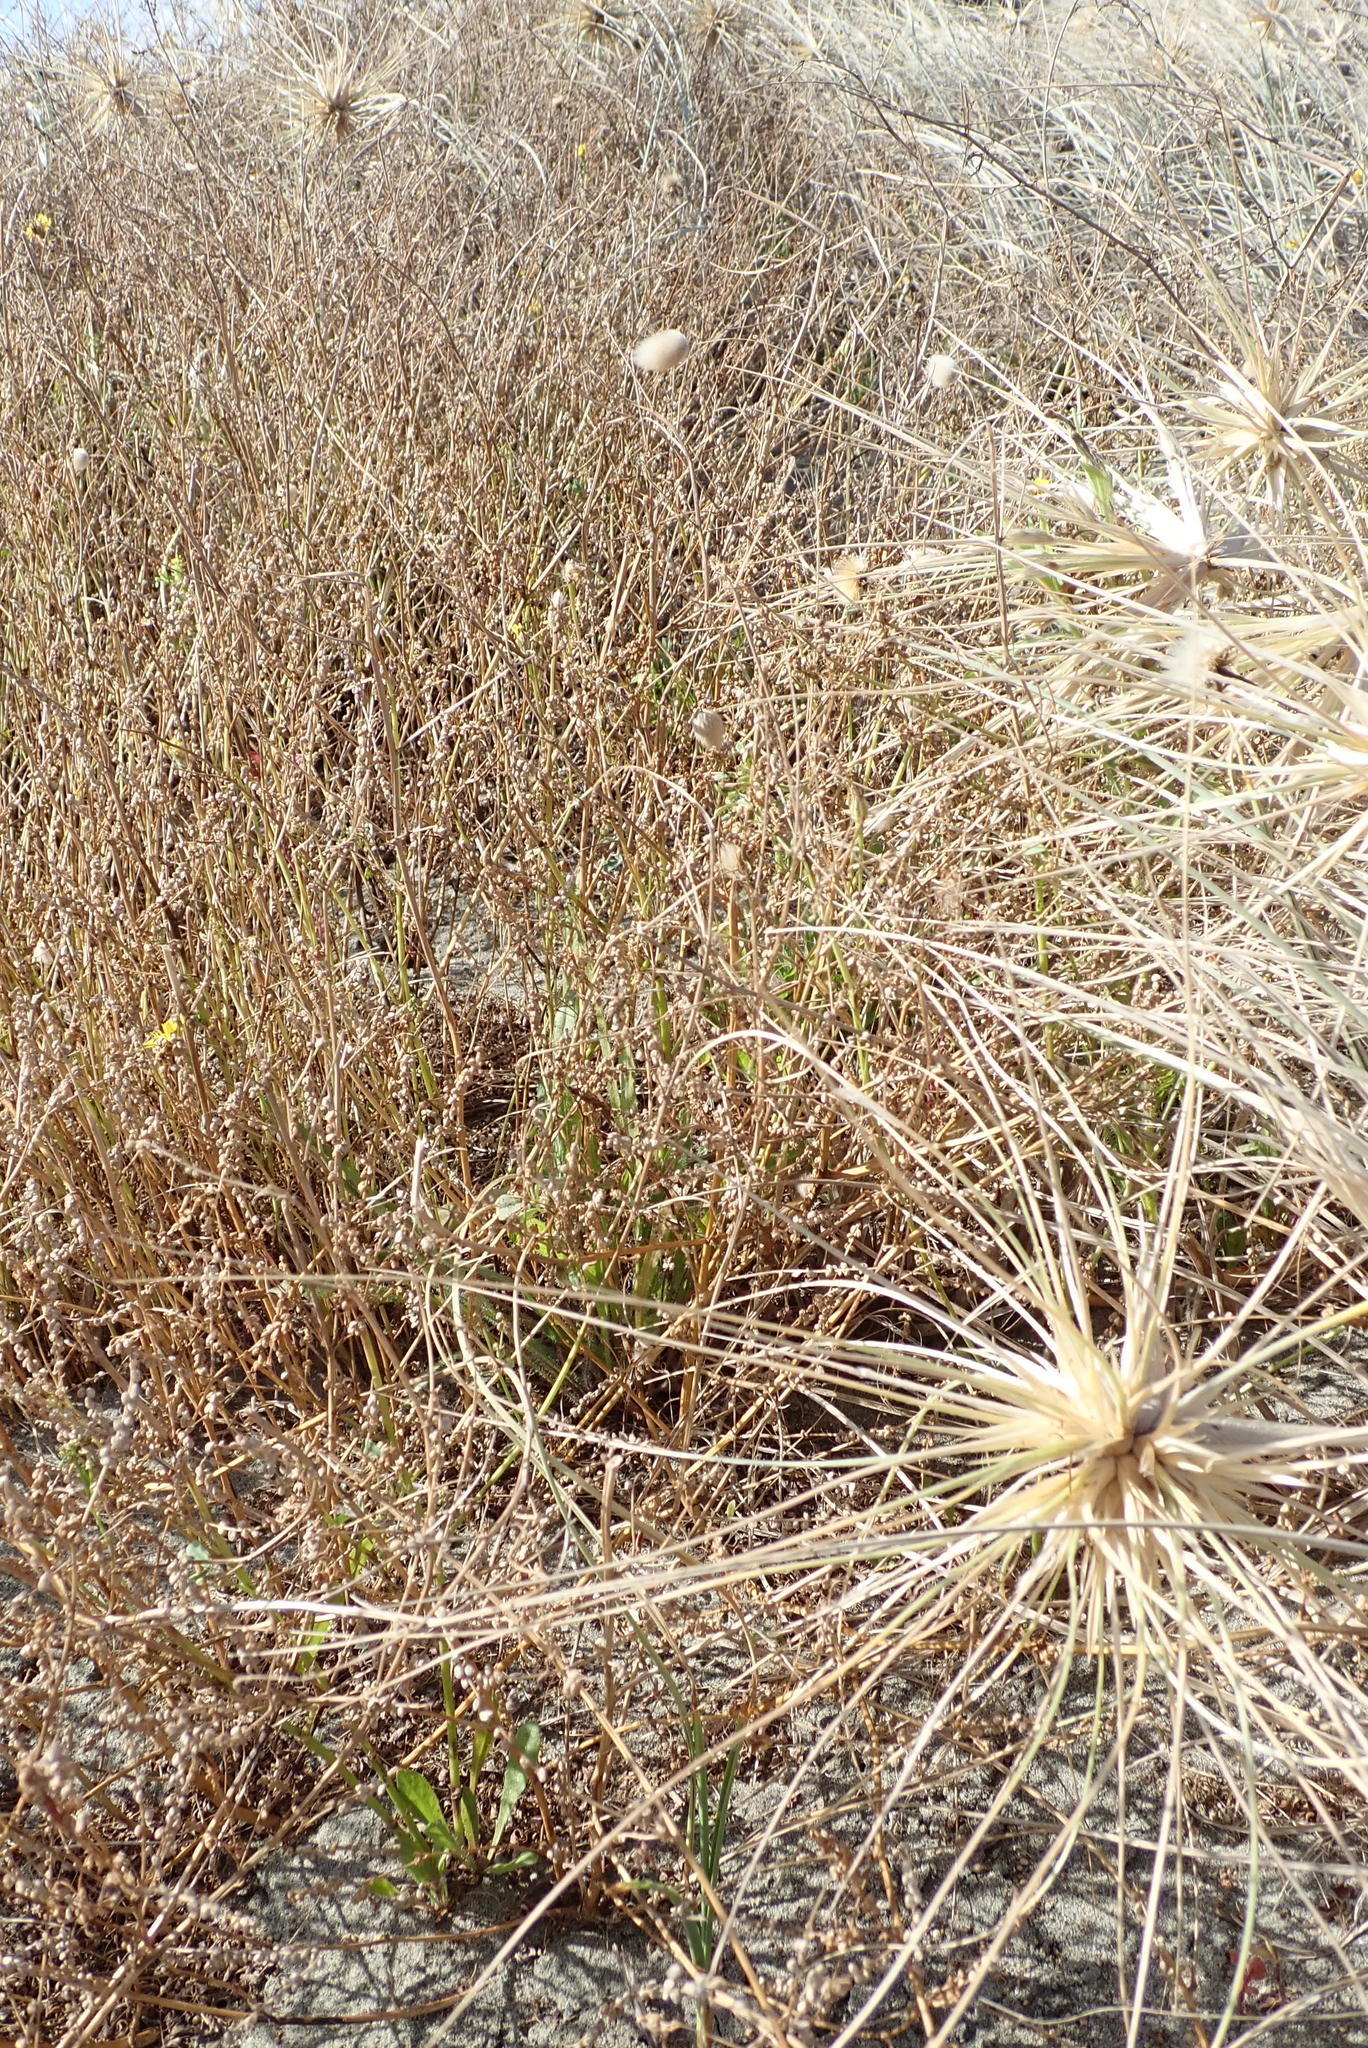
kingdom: Plantae
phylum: Tracheophyta
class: Magnoliopsida
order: Fabales
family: Fabaceae
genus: Melilotus
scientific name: Melilotus indicus
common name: Small melilot
